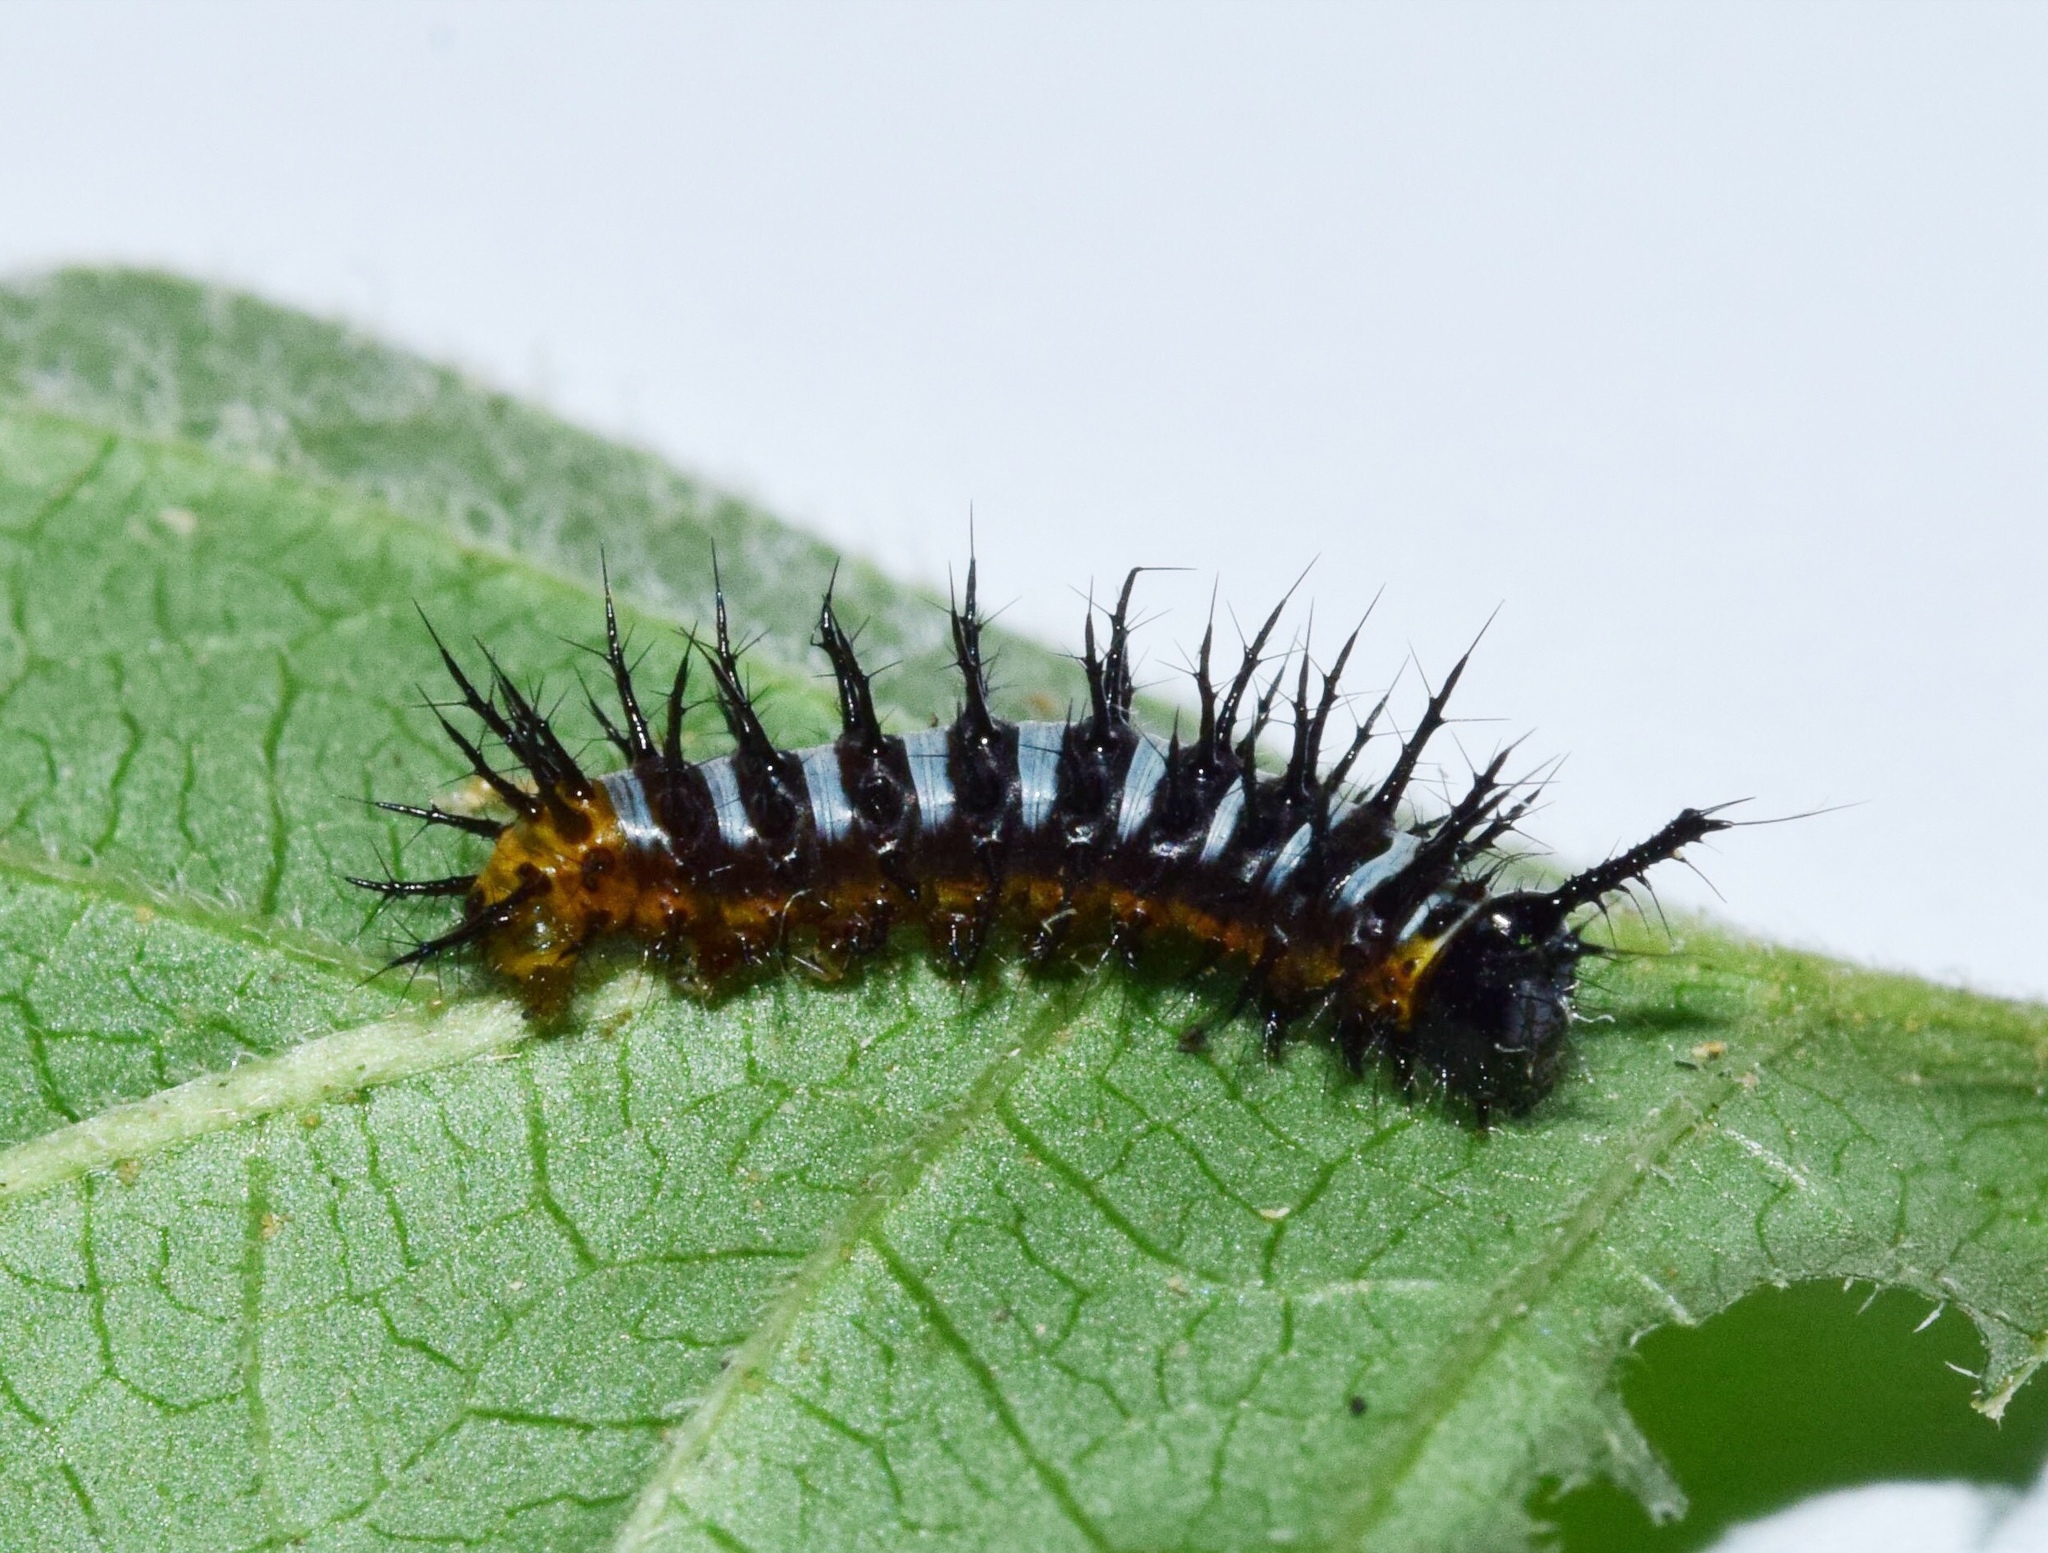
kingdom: Animalia
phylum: Arthropoda
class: Insecta
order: Lepidoptera
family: Nymphalidae
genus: Salamis
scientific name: Salamis Protogoniomorpha parhassus
